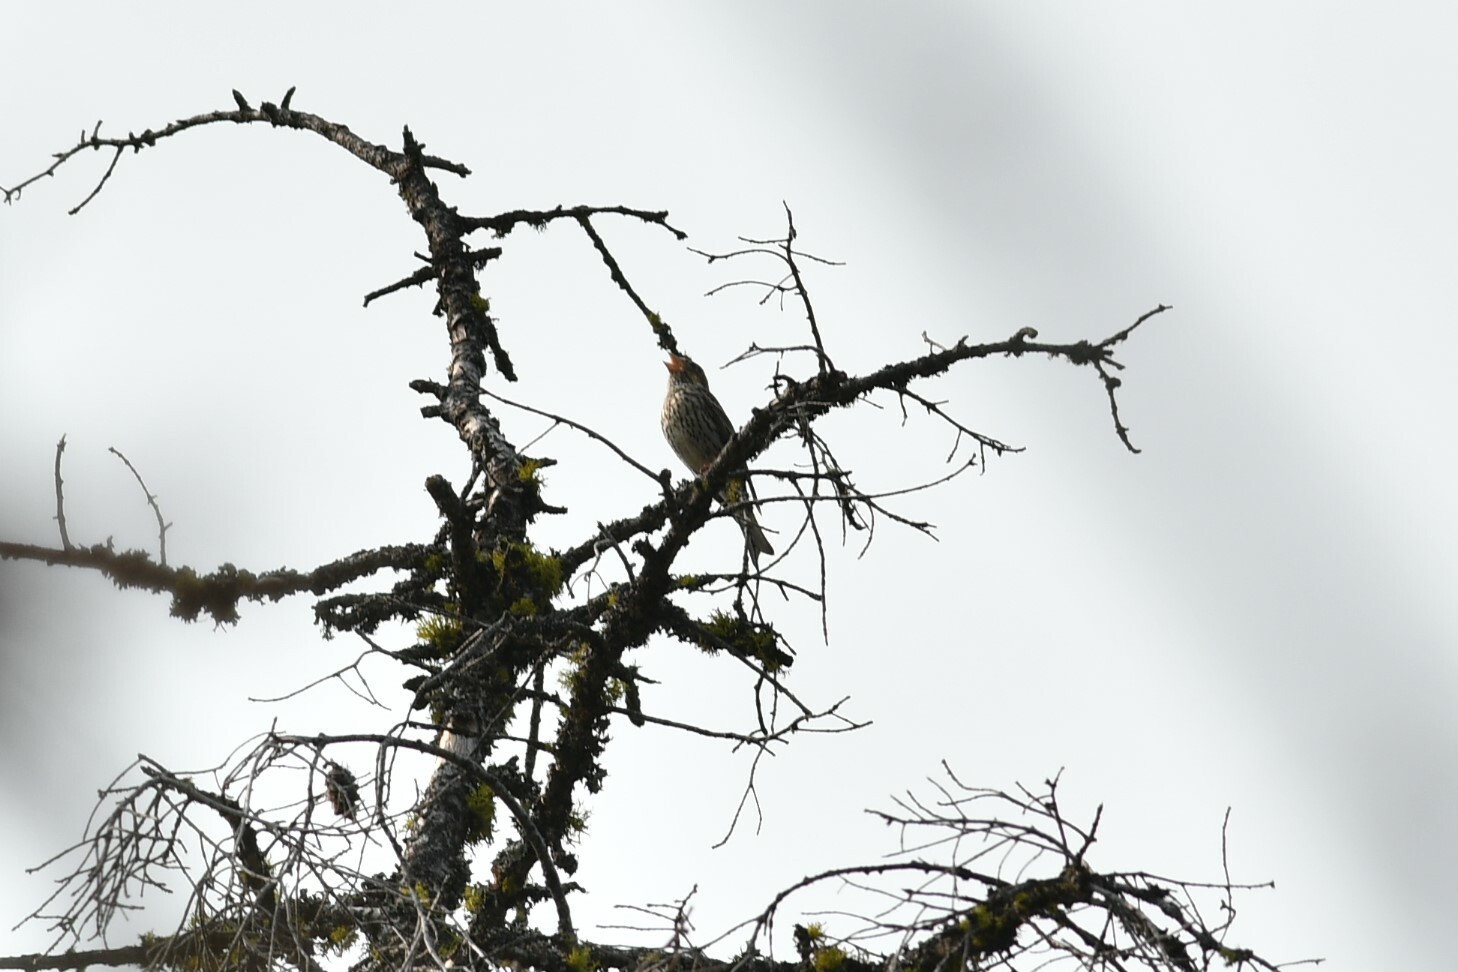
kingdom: Animalia
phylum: Chordata
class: Aves
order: Passeriformes
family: Fringillidae
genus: Haemorhous
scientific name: Haemorhous cassinii
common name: Cassin's finch
